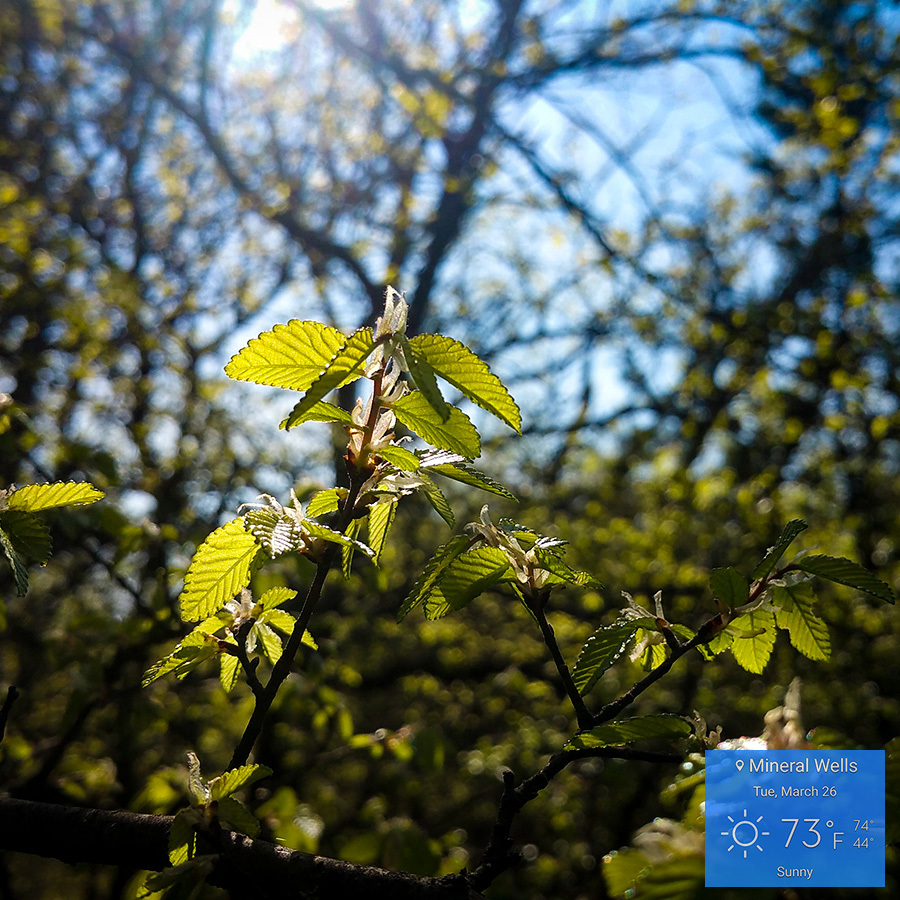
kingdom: Plantae
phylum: Tracheophyta
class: Magnoliopsida
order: Rosales
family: Ulmaceae
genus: Ulmus
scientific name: Ulmus crassifolia
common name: Basket elm
